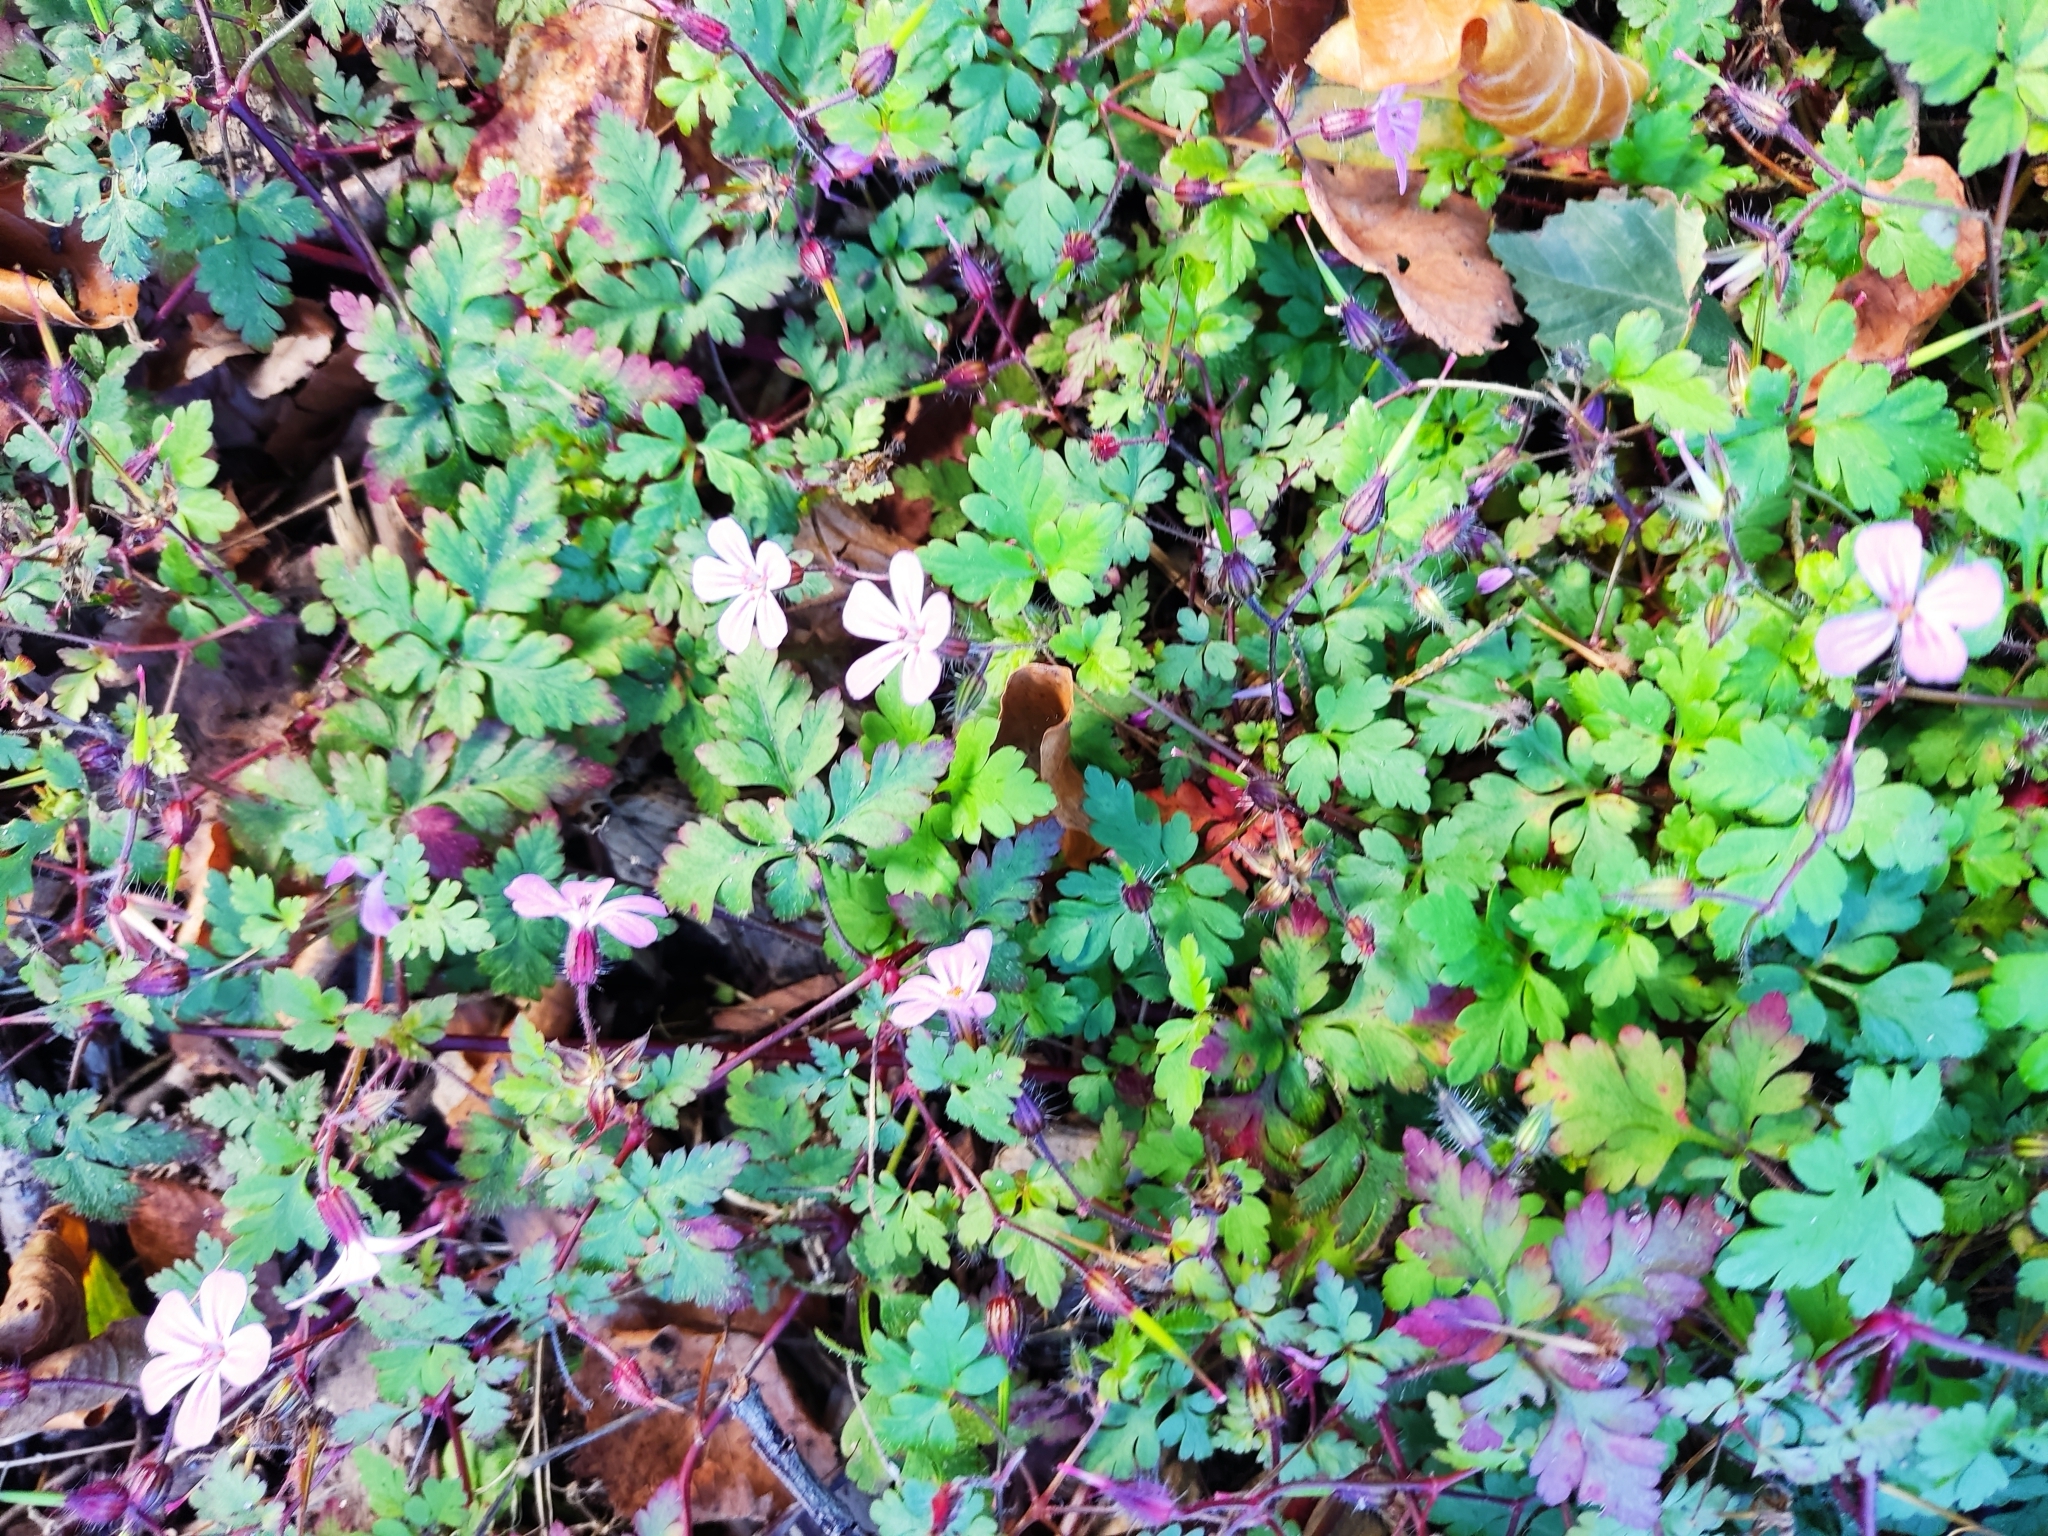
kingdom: Plantae
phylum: Tracheophyta
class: Magnoliopsida
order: Geraniales
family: Geraniaceae
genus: Geranium
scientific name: Geranium robertianum
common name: Herb-robert
